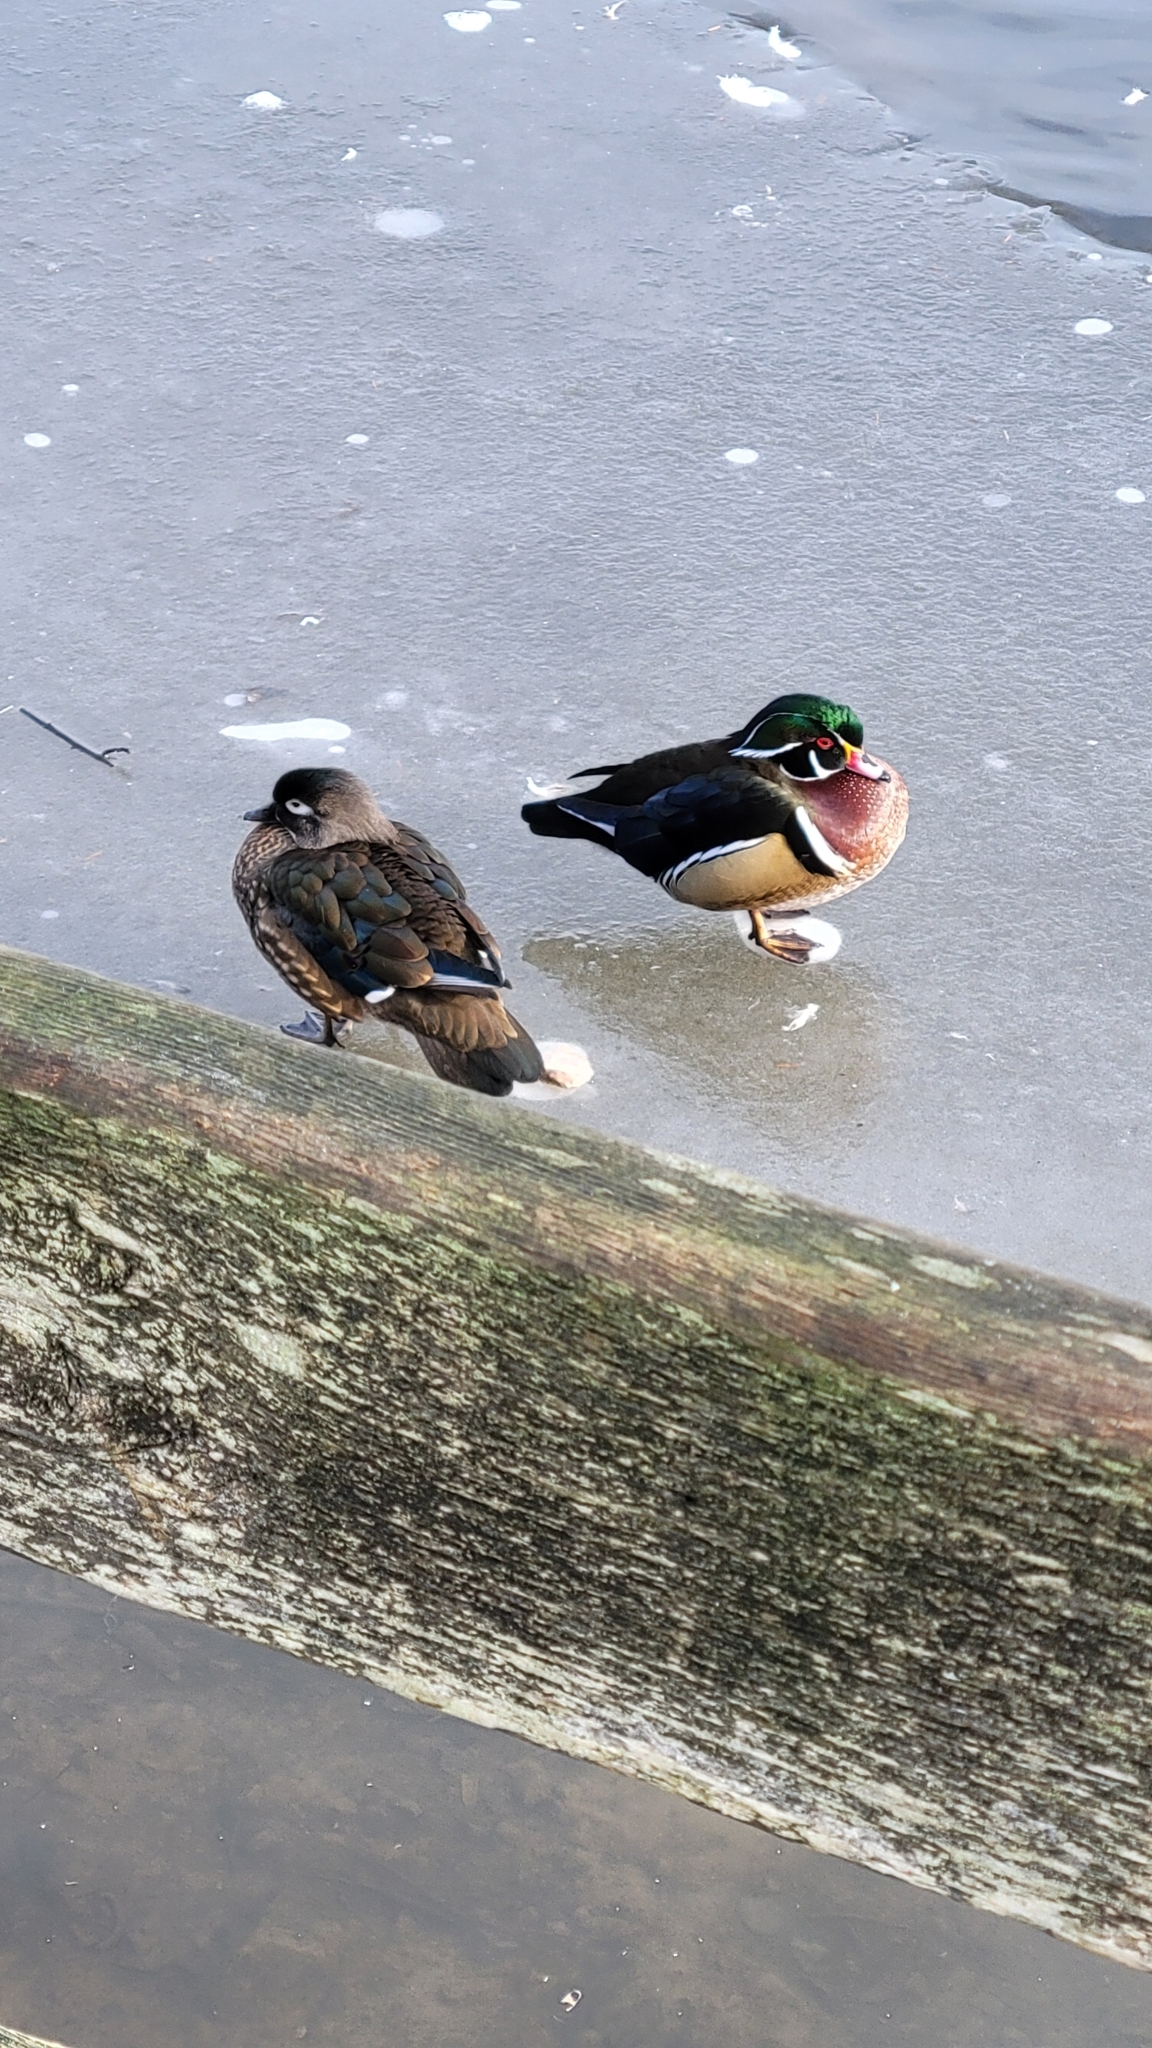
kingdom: Animalia
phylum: Chordata
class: Aves
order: Anseriformes
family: Anatidae
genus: Aix
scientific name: Aix sponsa
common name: Wood duck
